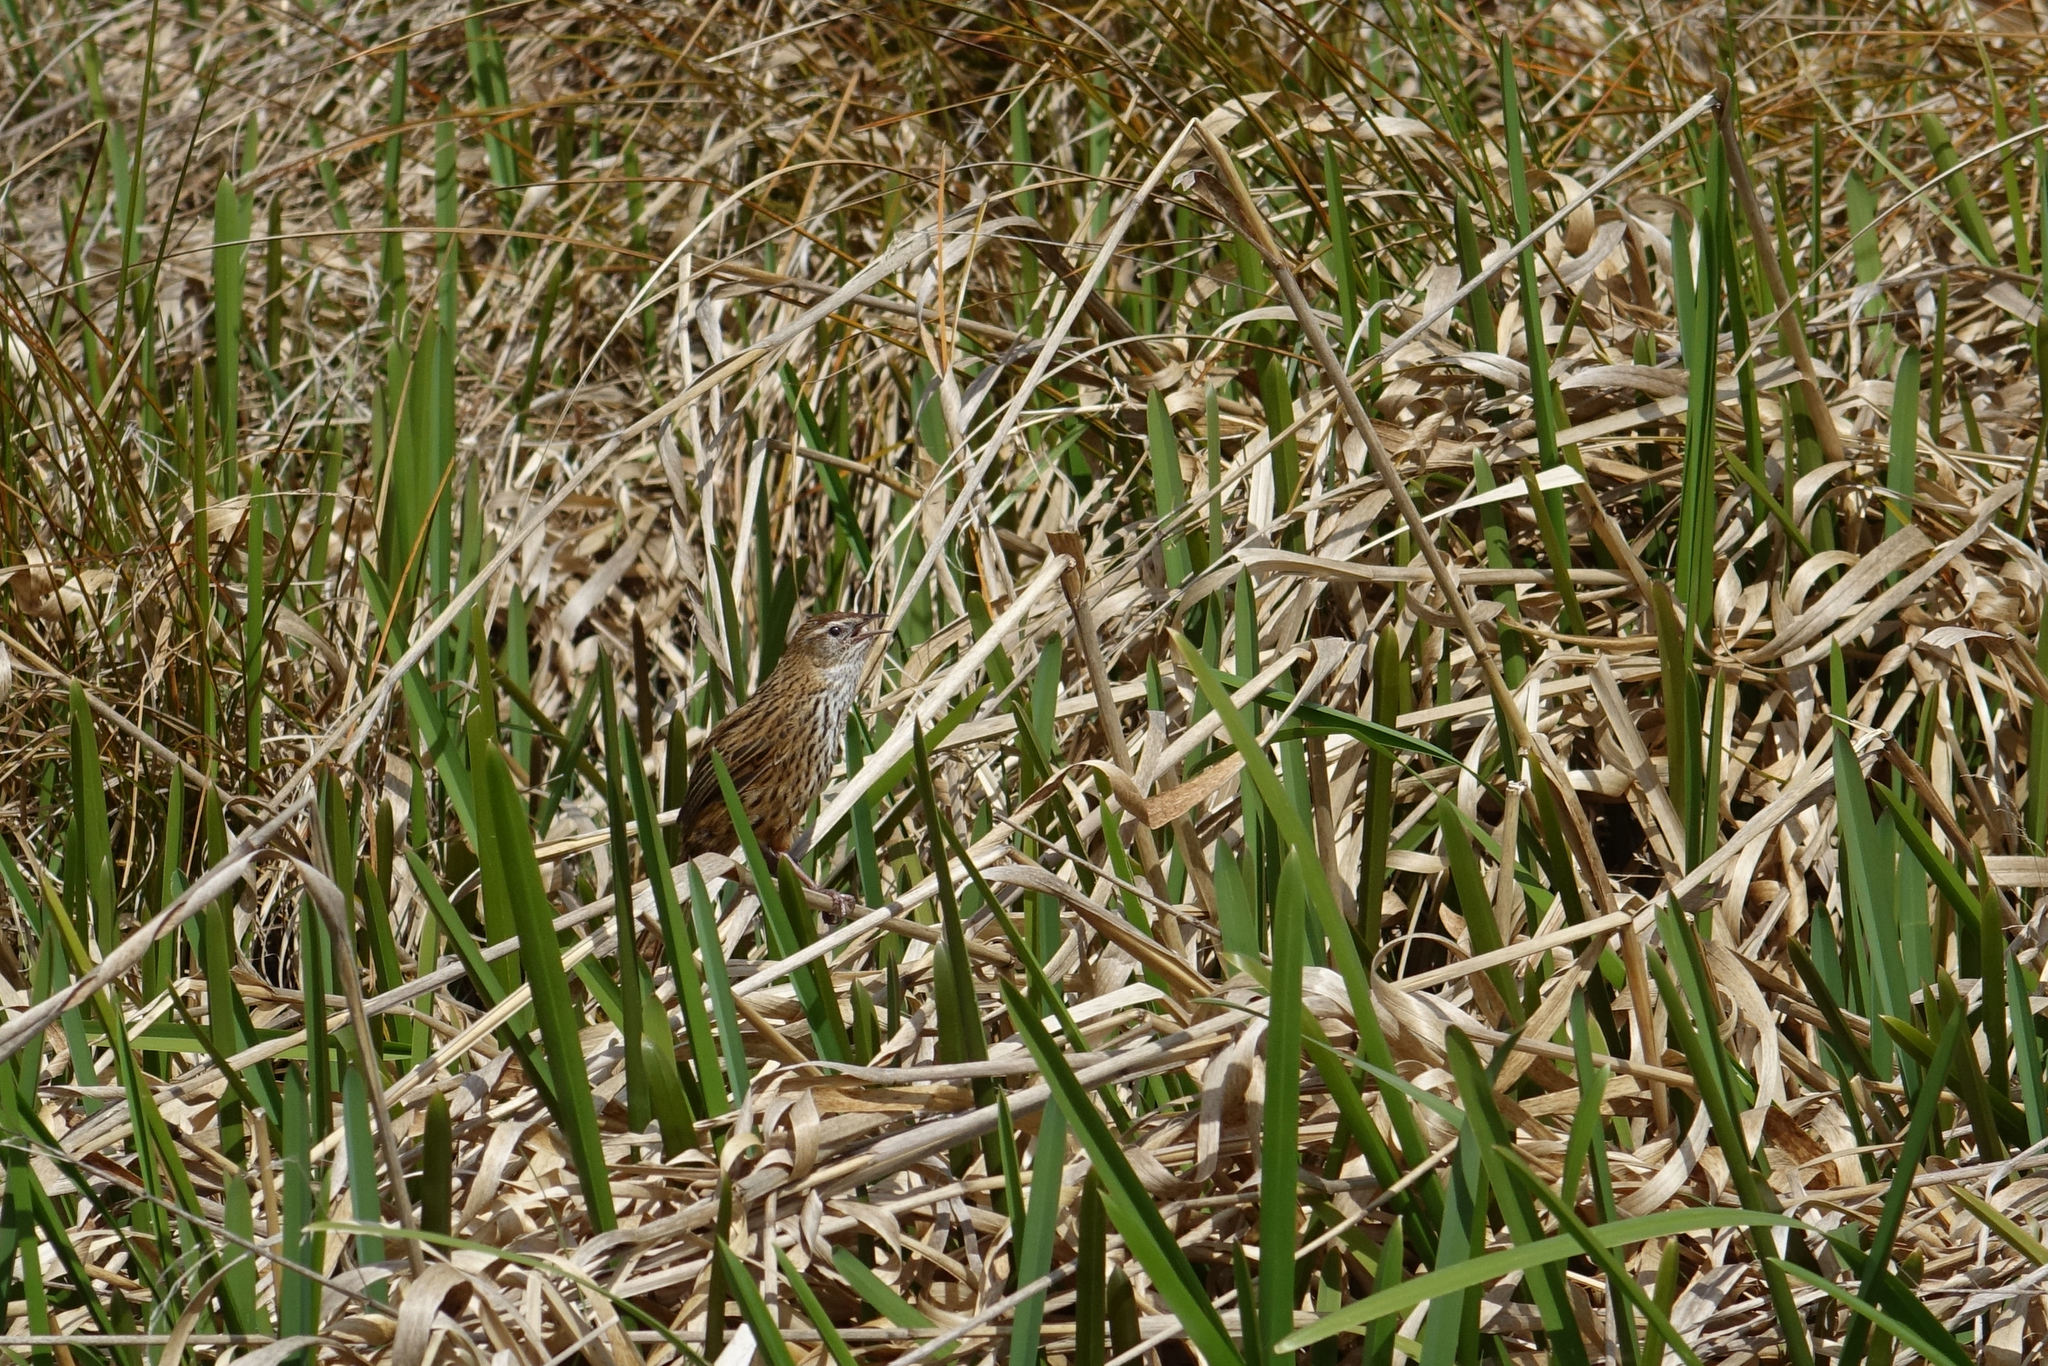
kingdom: Animalia
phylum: Chordata
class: Aves
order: Passeriformes
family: Locustellidae
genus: Poodytes
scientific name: Poodytes punctatus
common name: New zealand fernbird
